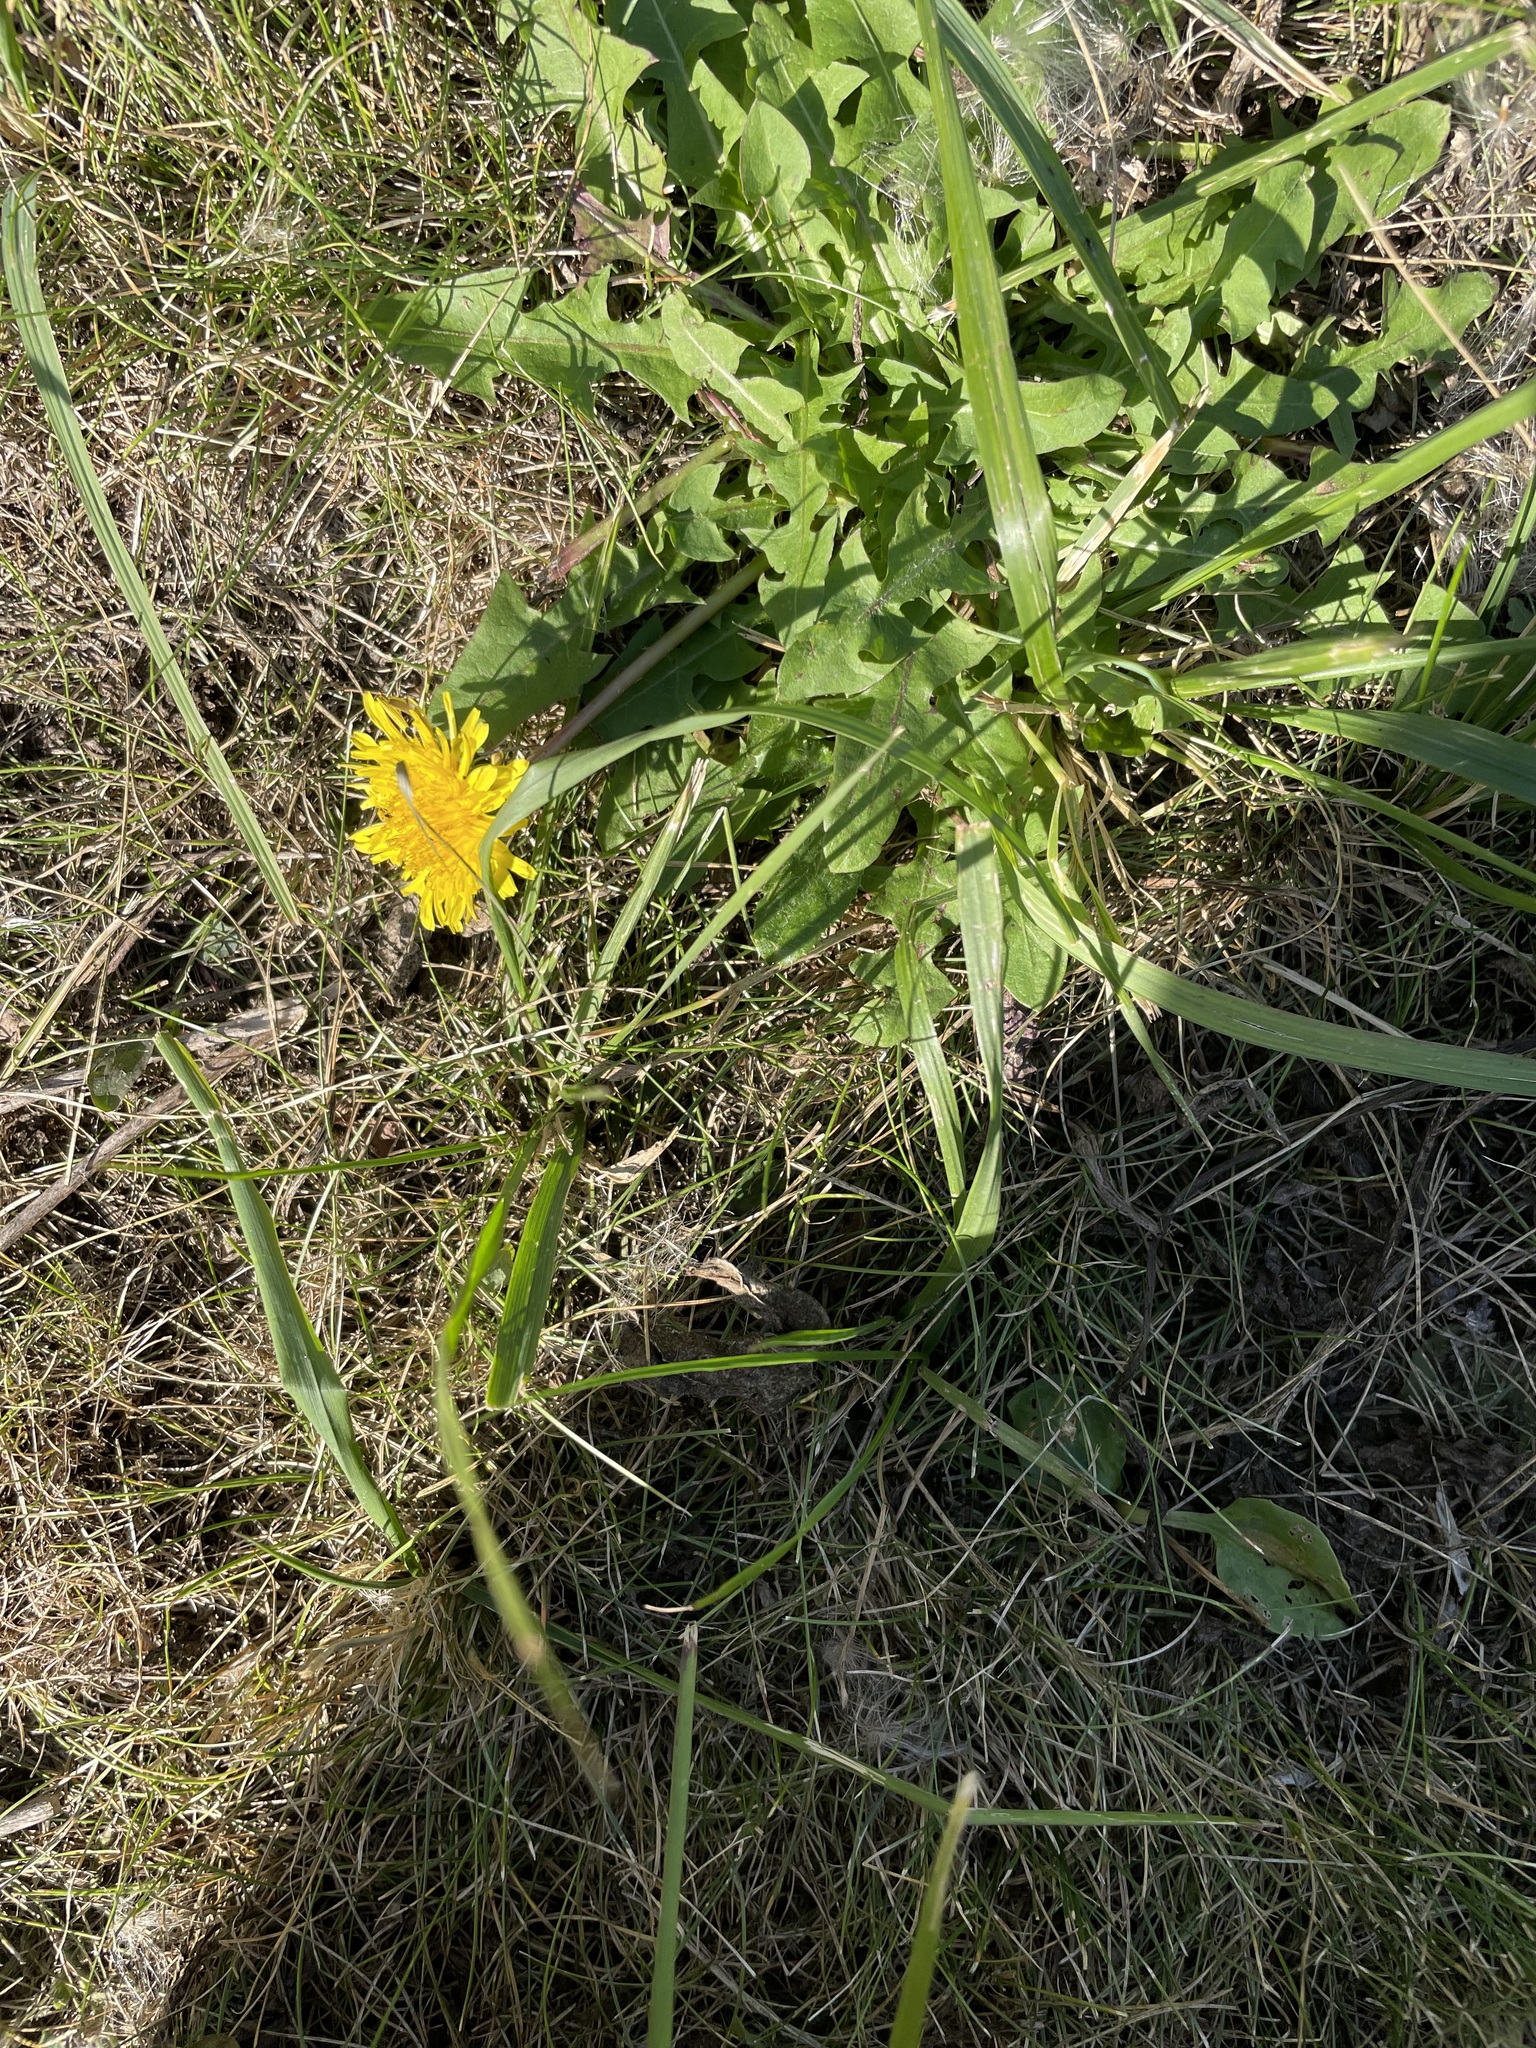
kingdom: Plantae
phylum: Tracheophyta
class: Magnoliopsida
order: Asterales
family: Asteraceae
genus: Taraxacum
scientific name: Taraxacum officinale
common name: Common dandelion
